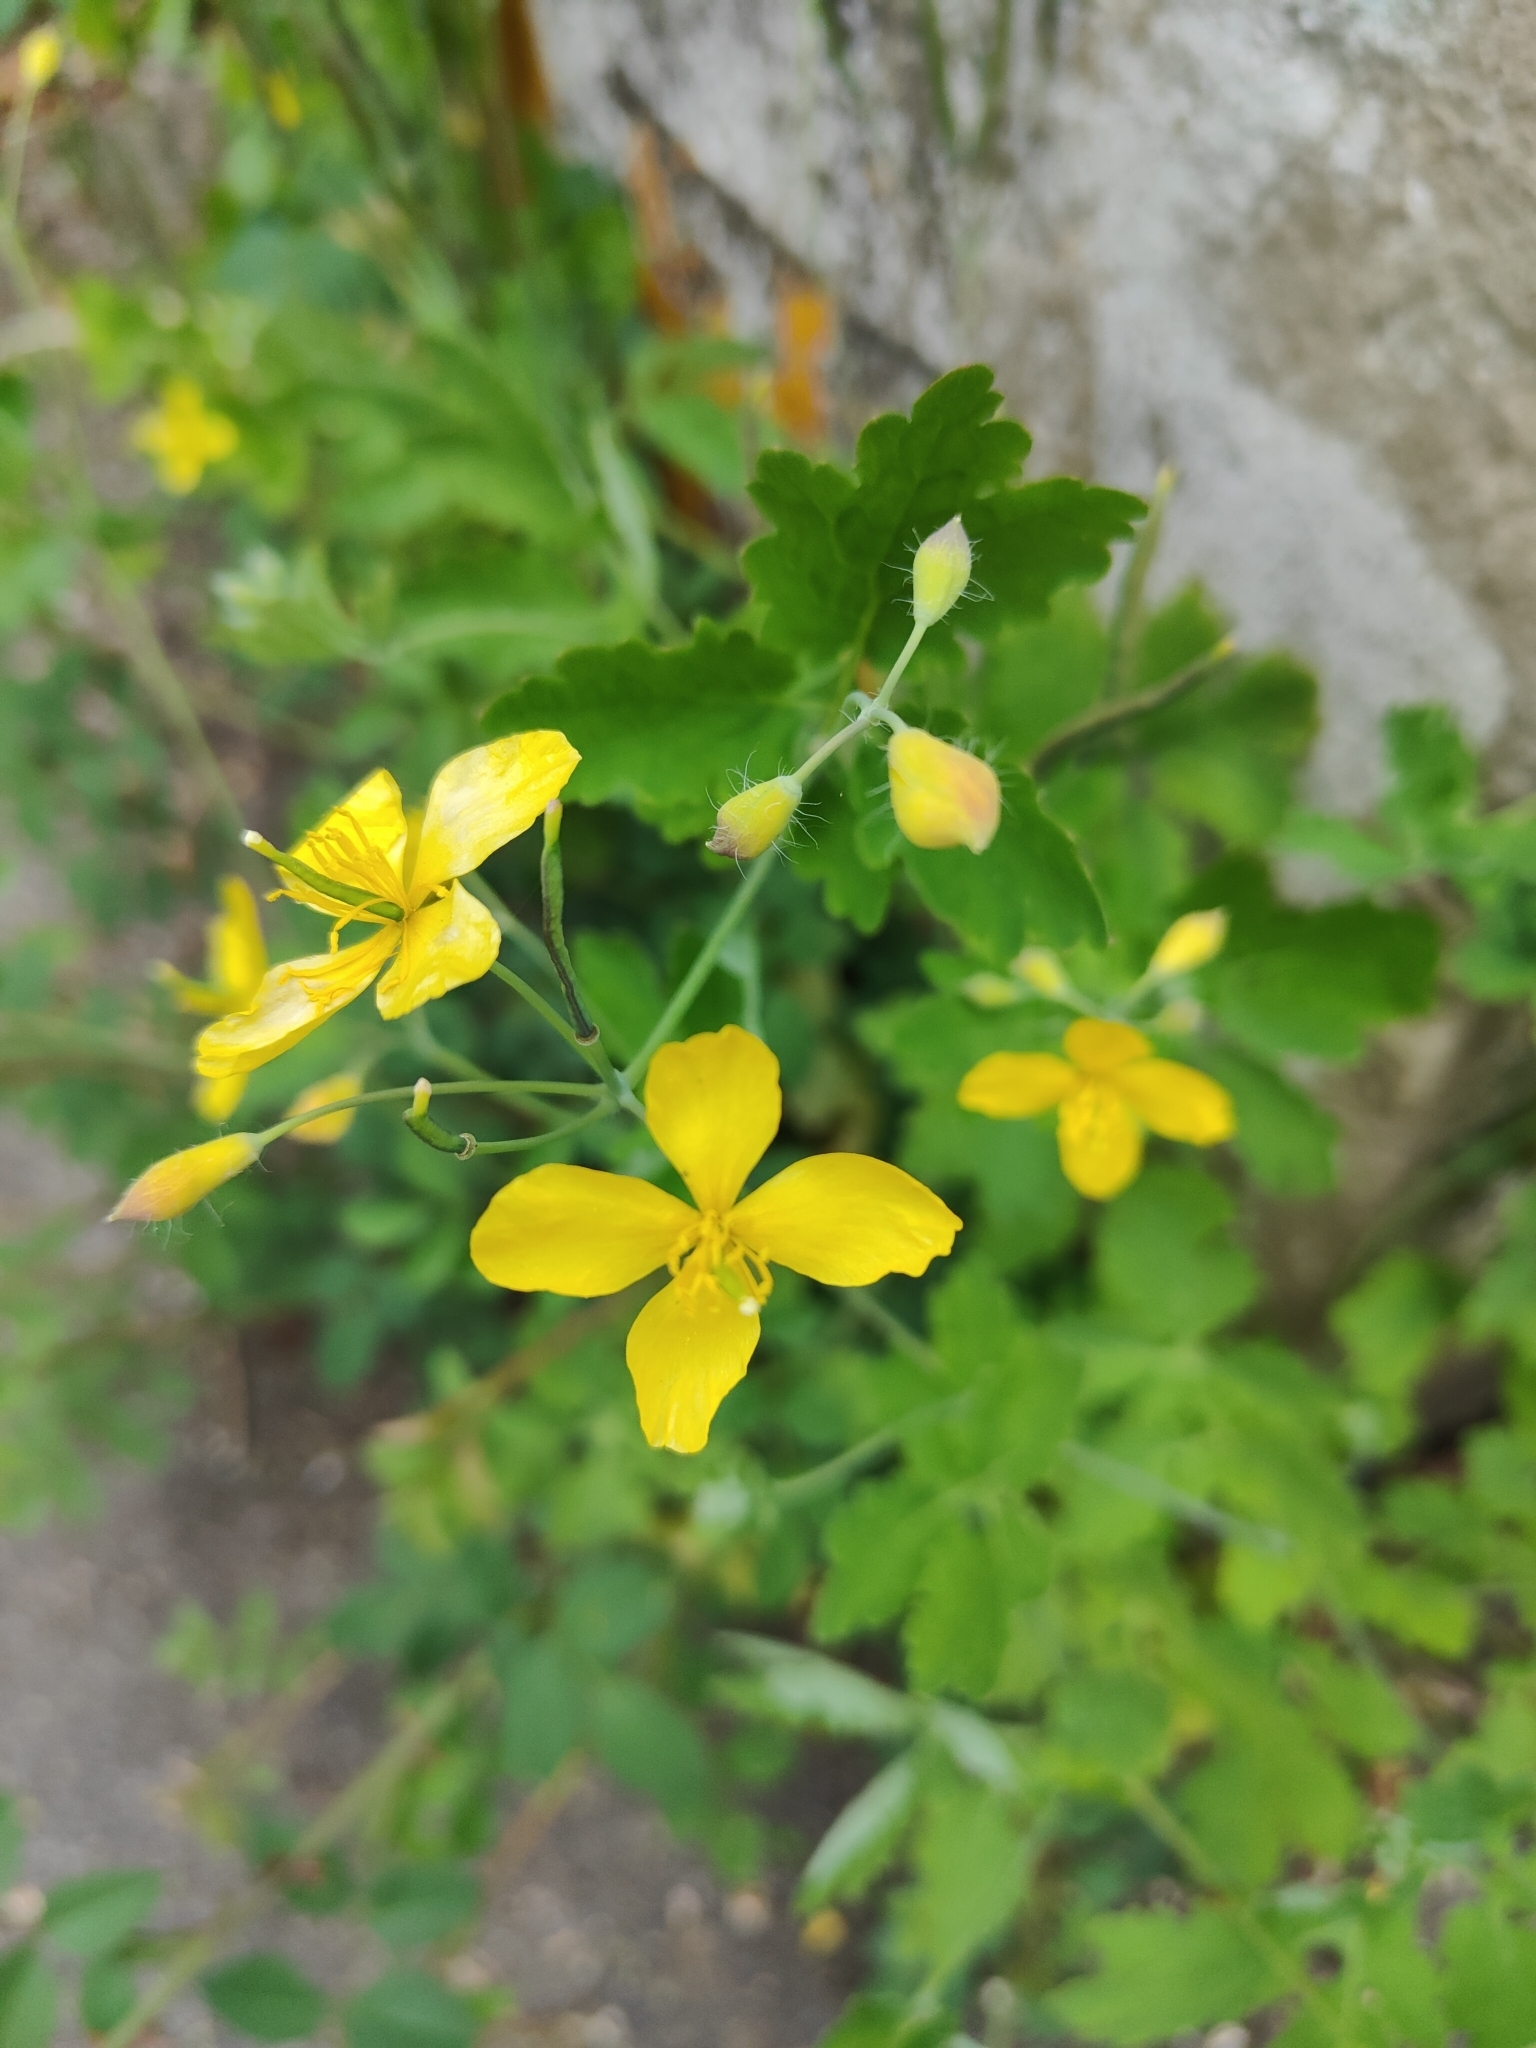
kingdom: Plantae
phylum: Tracheophyta
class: Magnoliopsida
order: Ranunculales
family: Papaveraceae
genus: Chelidonium
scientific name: Chelidonium majus
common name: Greater celandine
